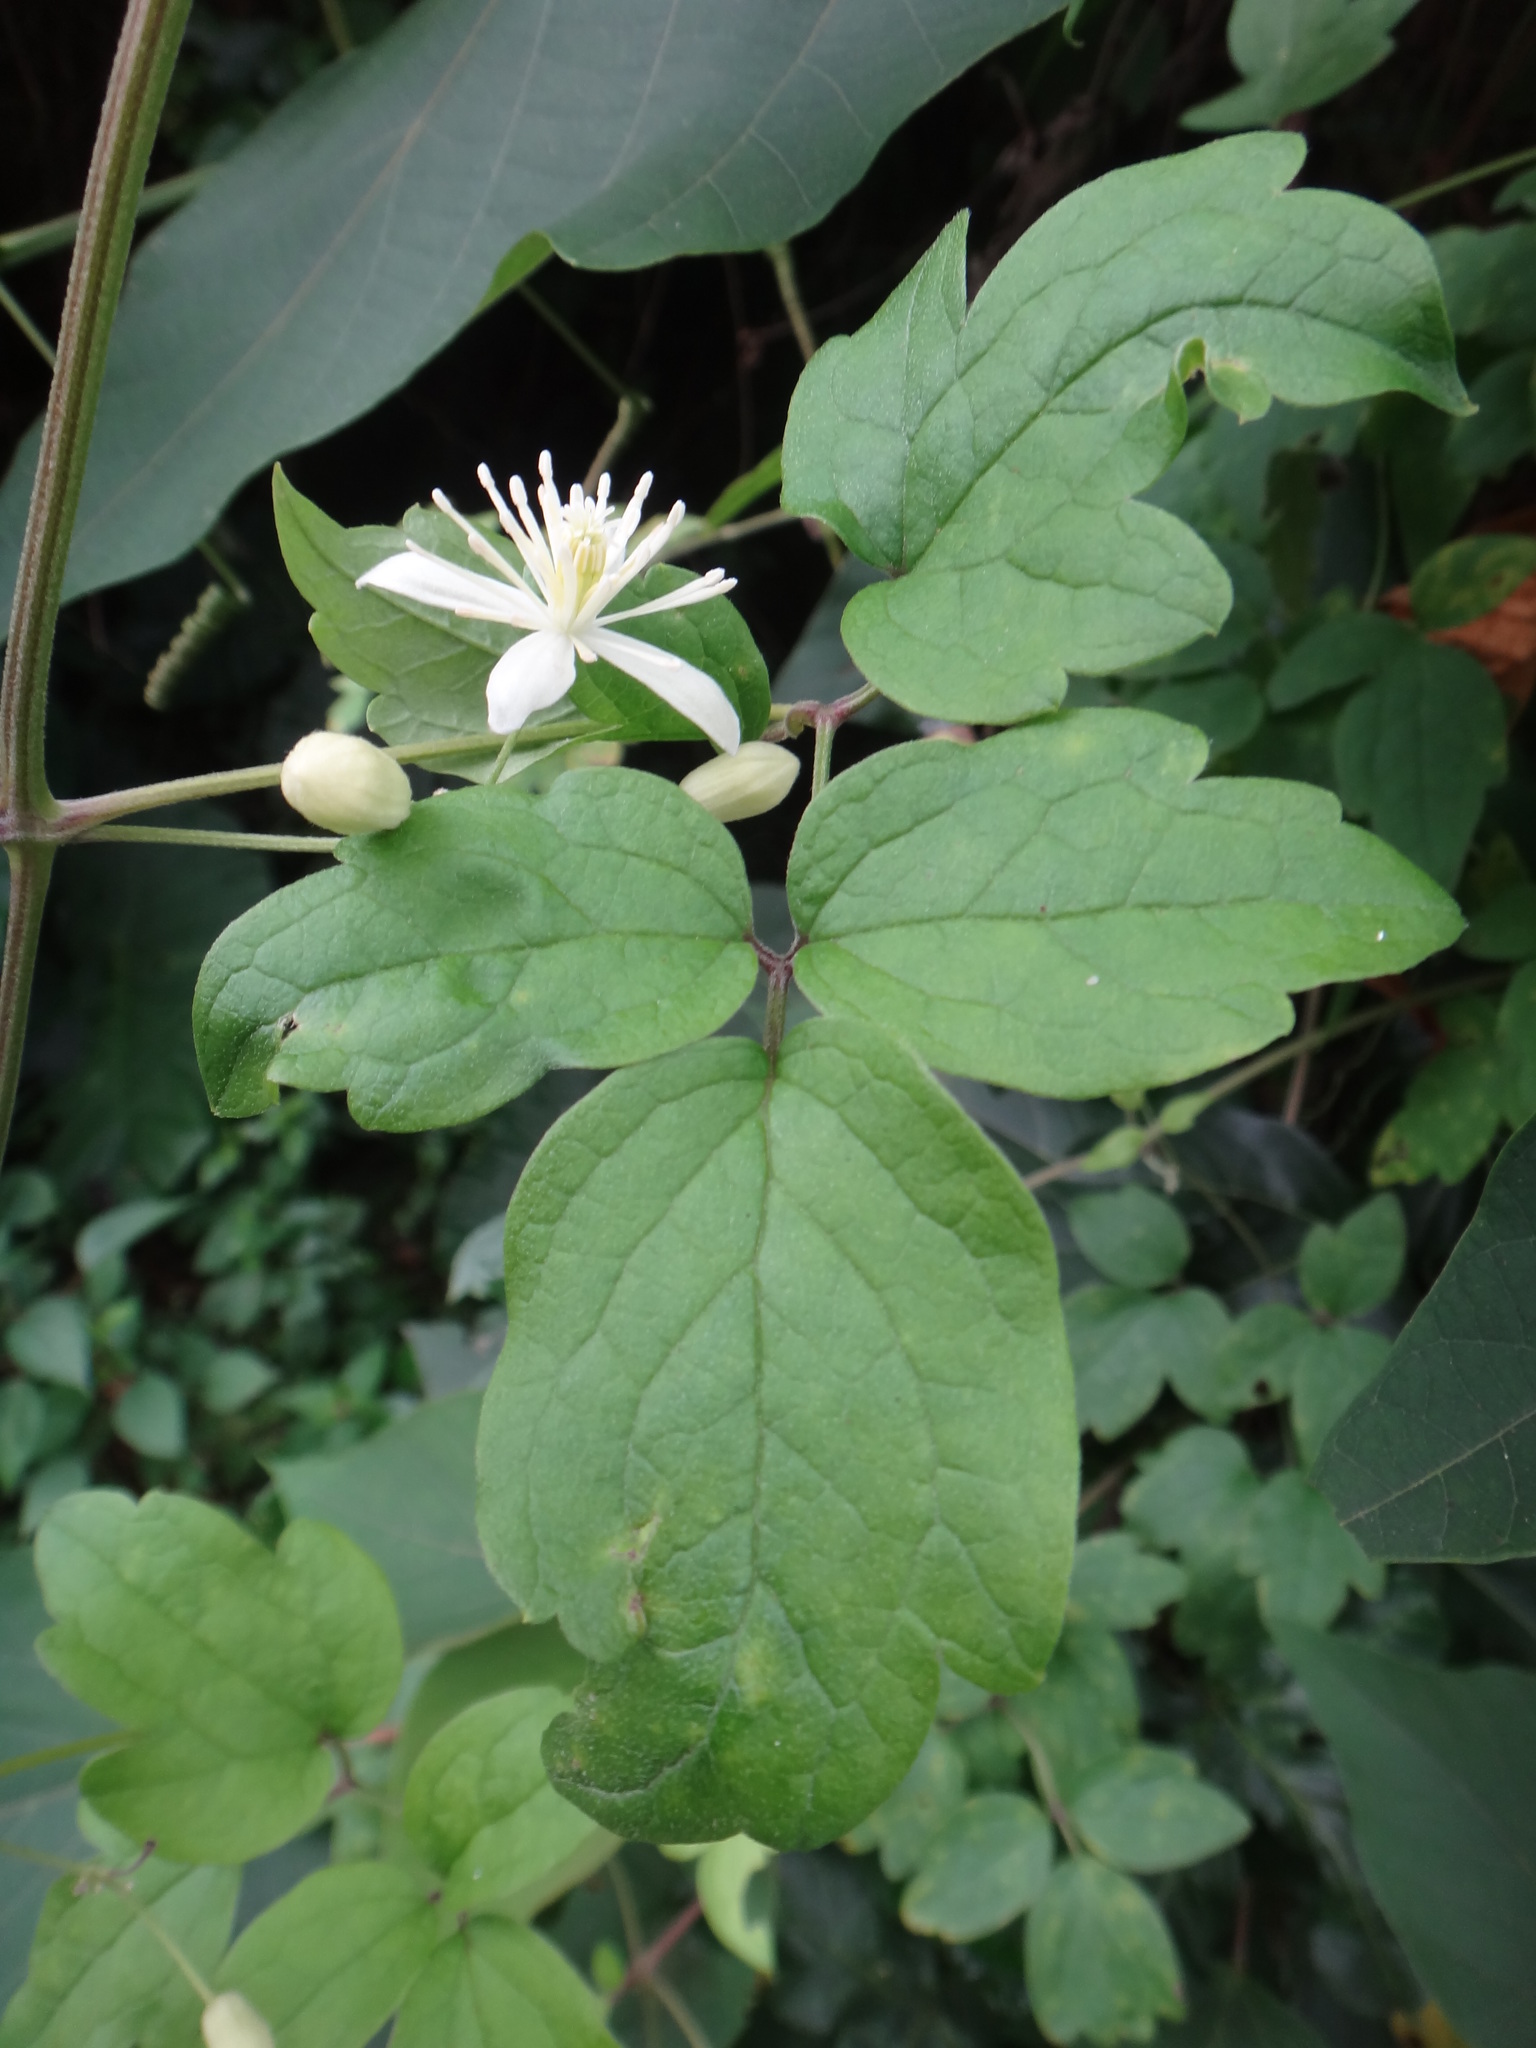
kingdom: Plantae
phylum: Tracheophyta
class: Magnoliopsida
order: Ranunculales
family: Ranunculaceae
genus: Clematis
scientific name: Clematis grata
